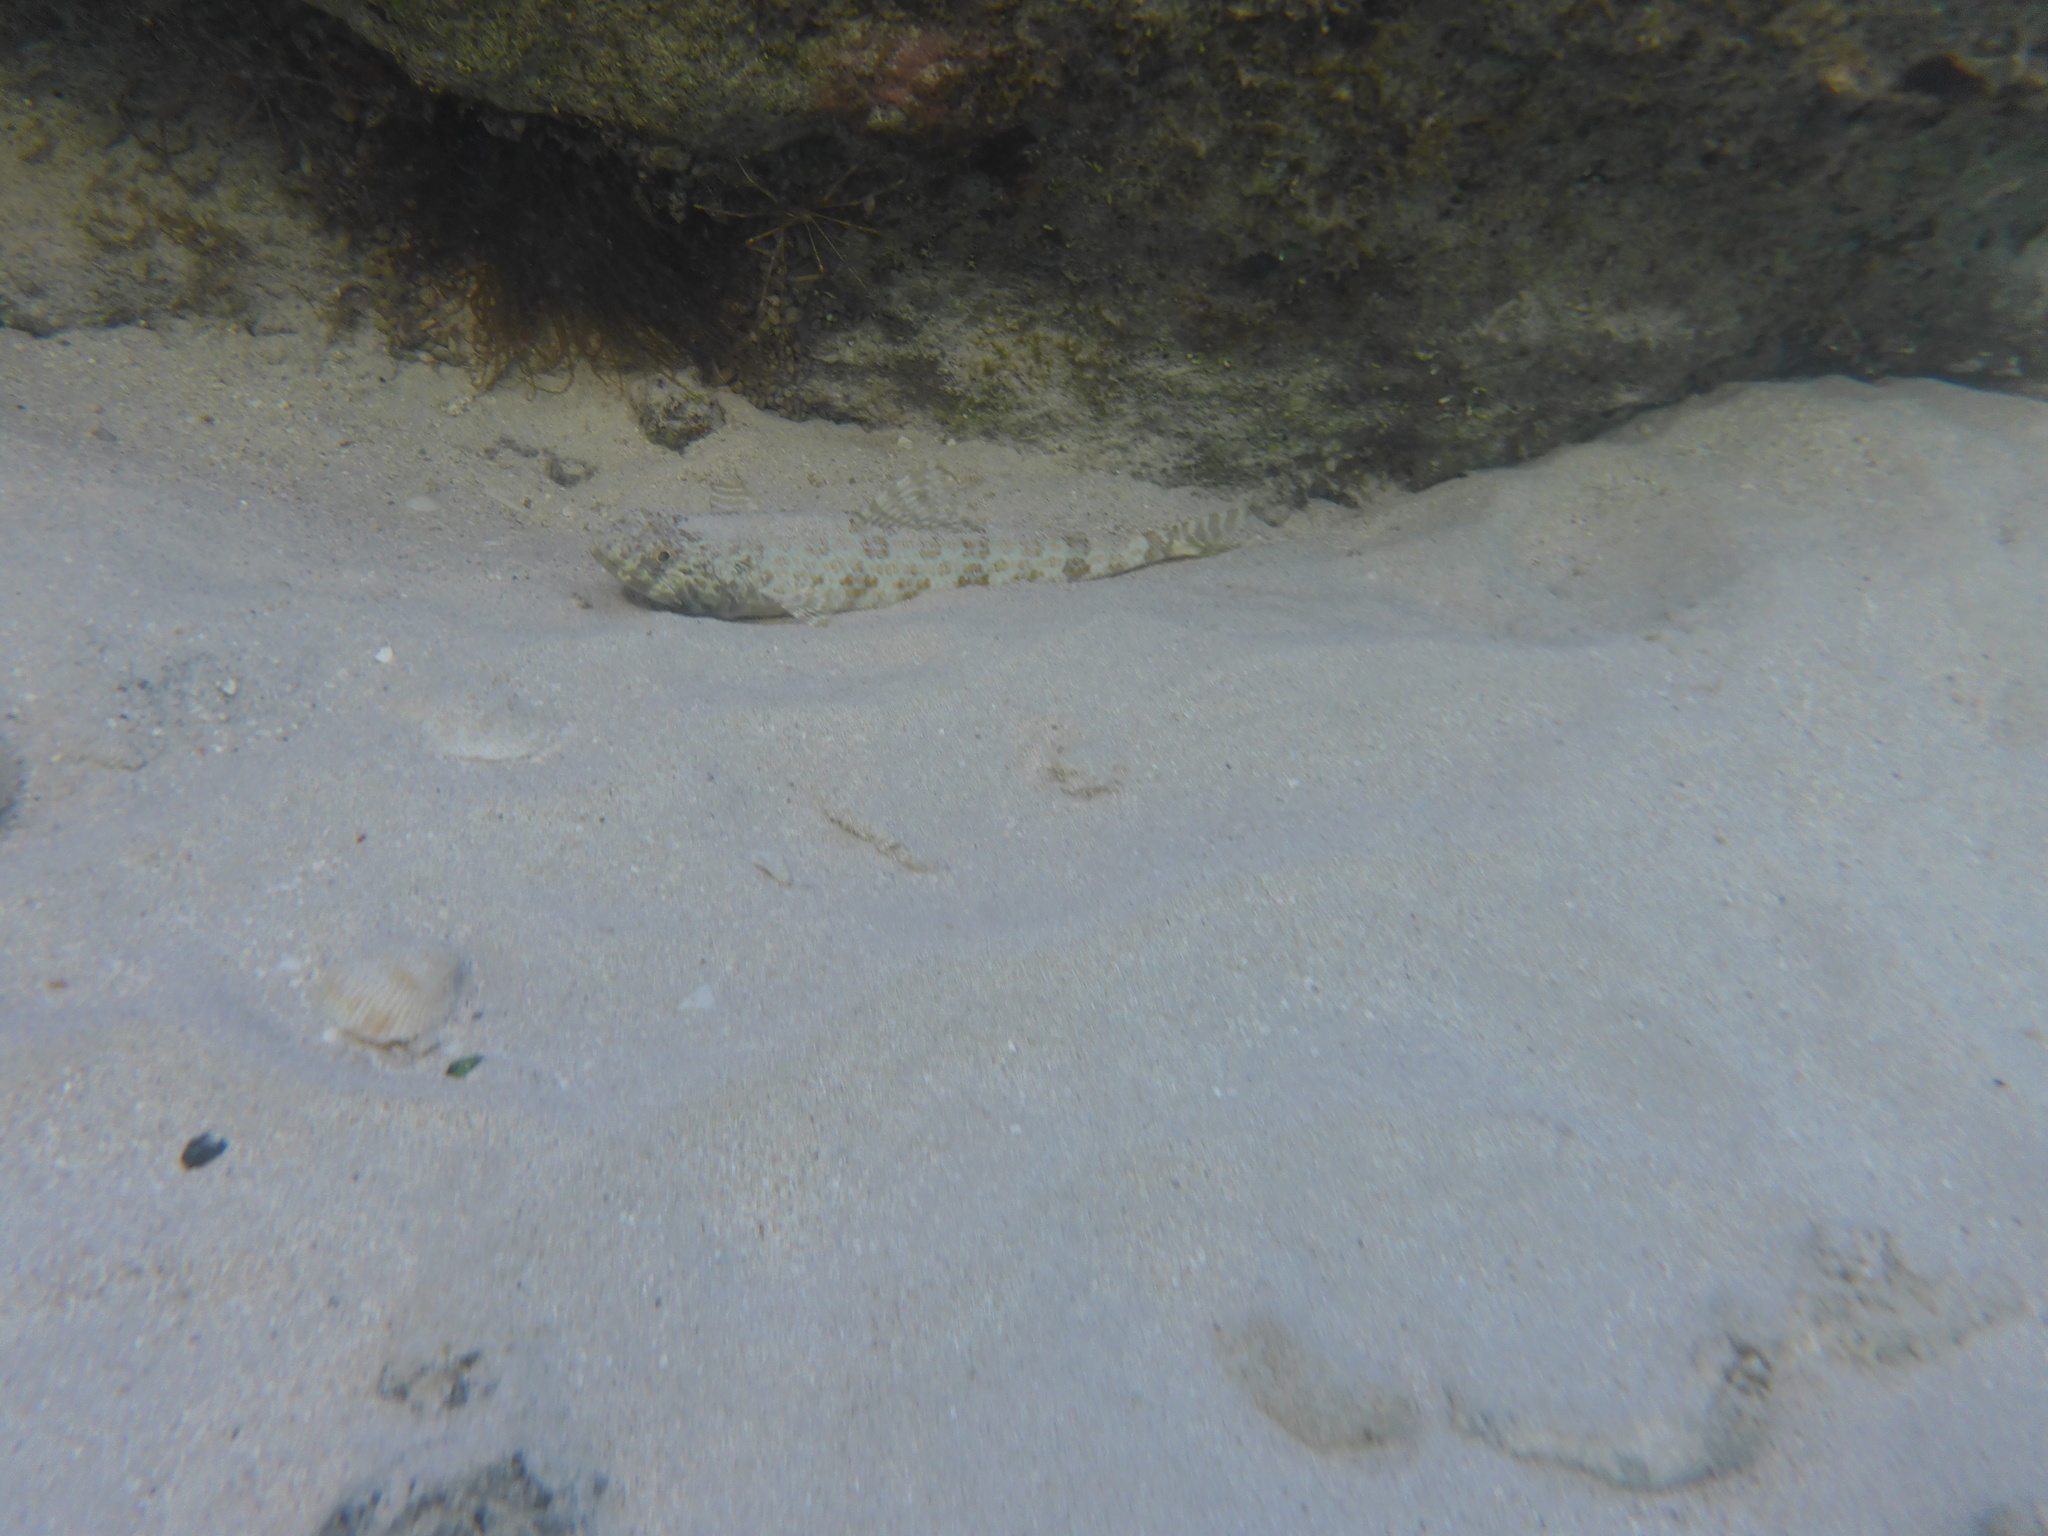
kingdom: Animalia
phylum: Chordata
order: Aulopiformes
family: Synodontidae
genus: Synodus
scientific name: Synodus intermedius
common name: Sand diver
